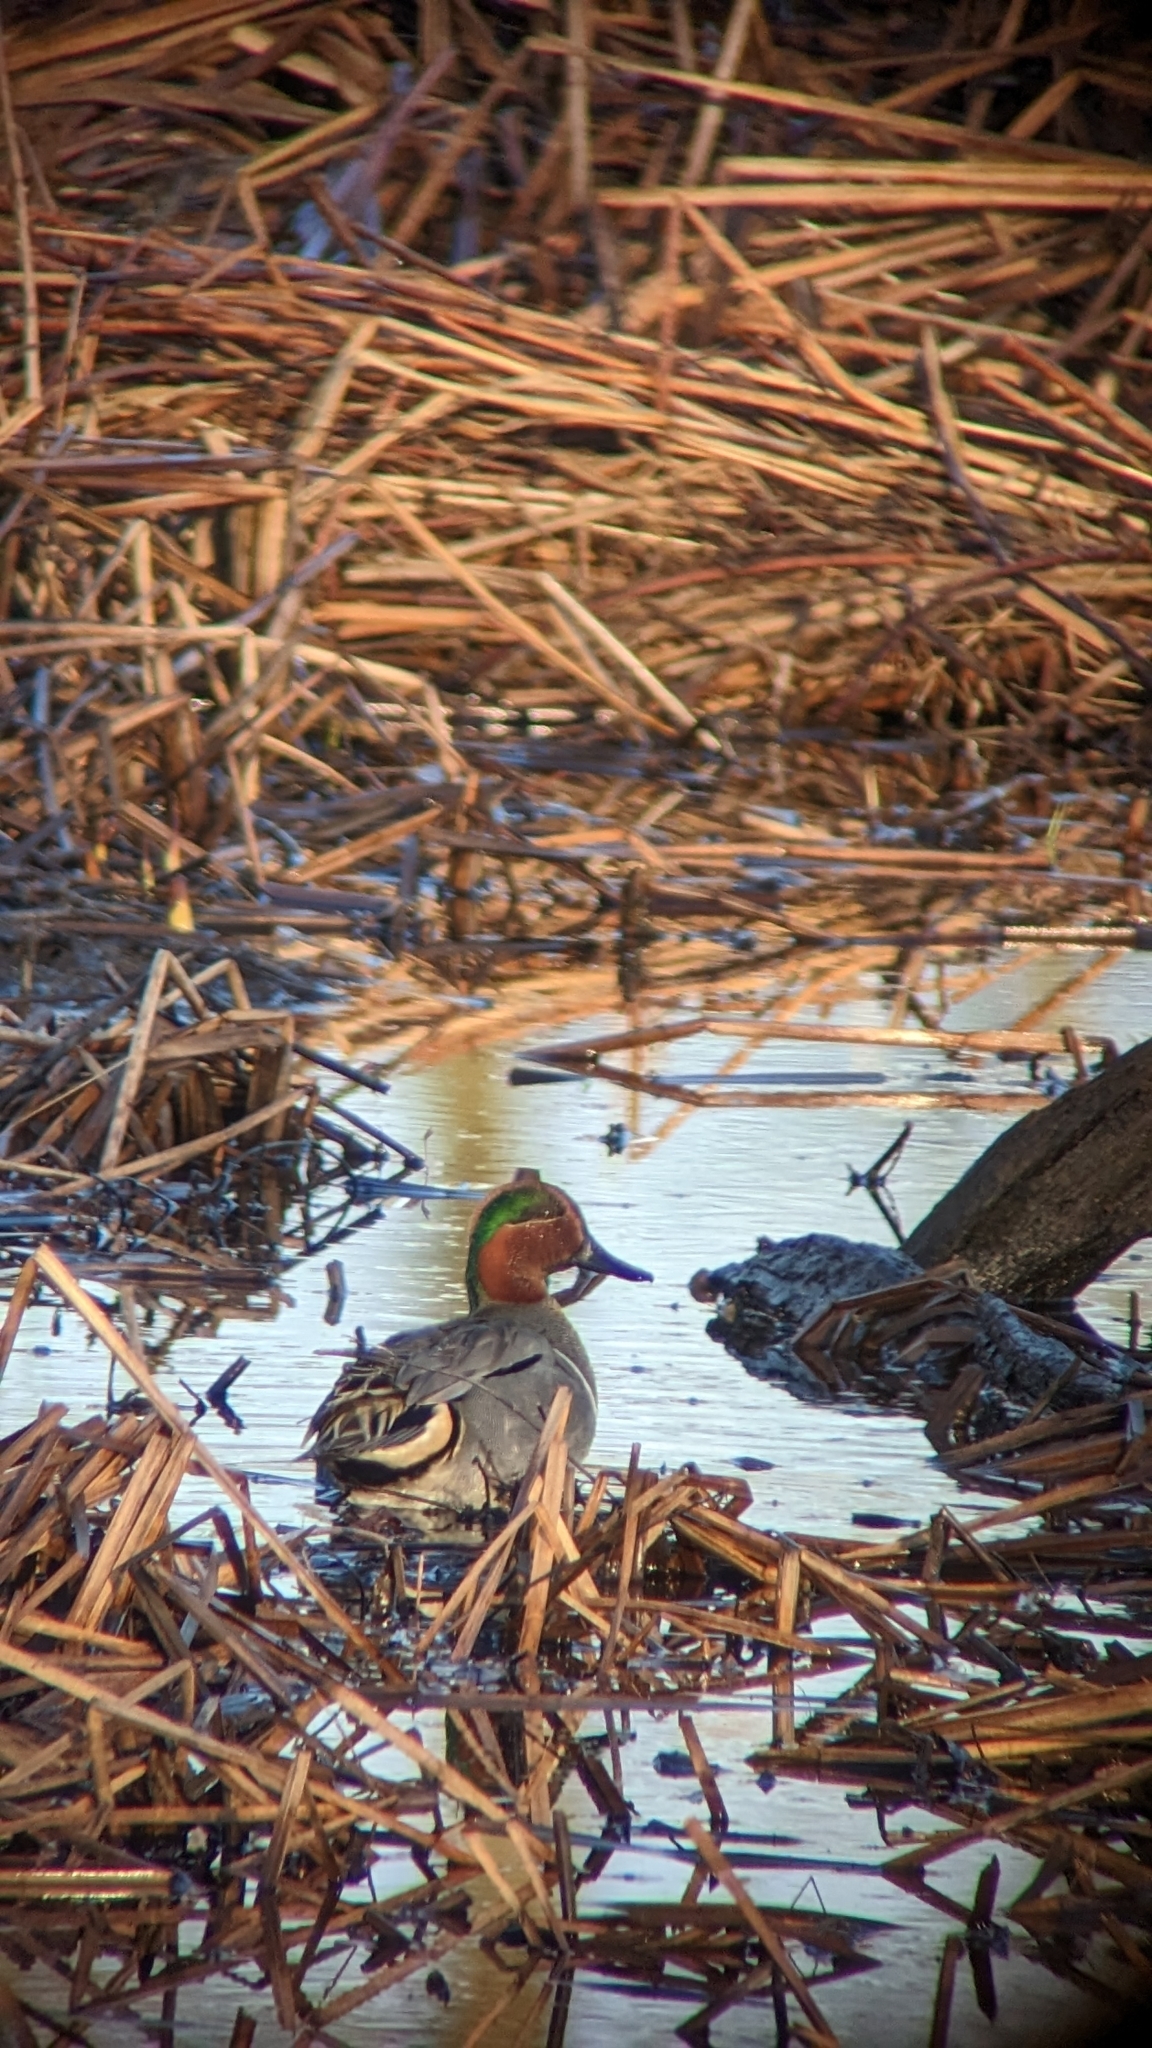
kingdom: Animalia
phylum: Chordata
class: Aves
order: Anseriformes
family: Anatidae
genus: Anas
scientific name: Anas crecca
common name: Eurasian teal
